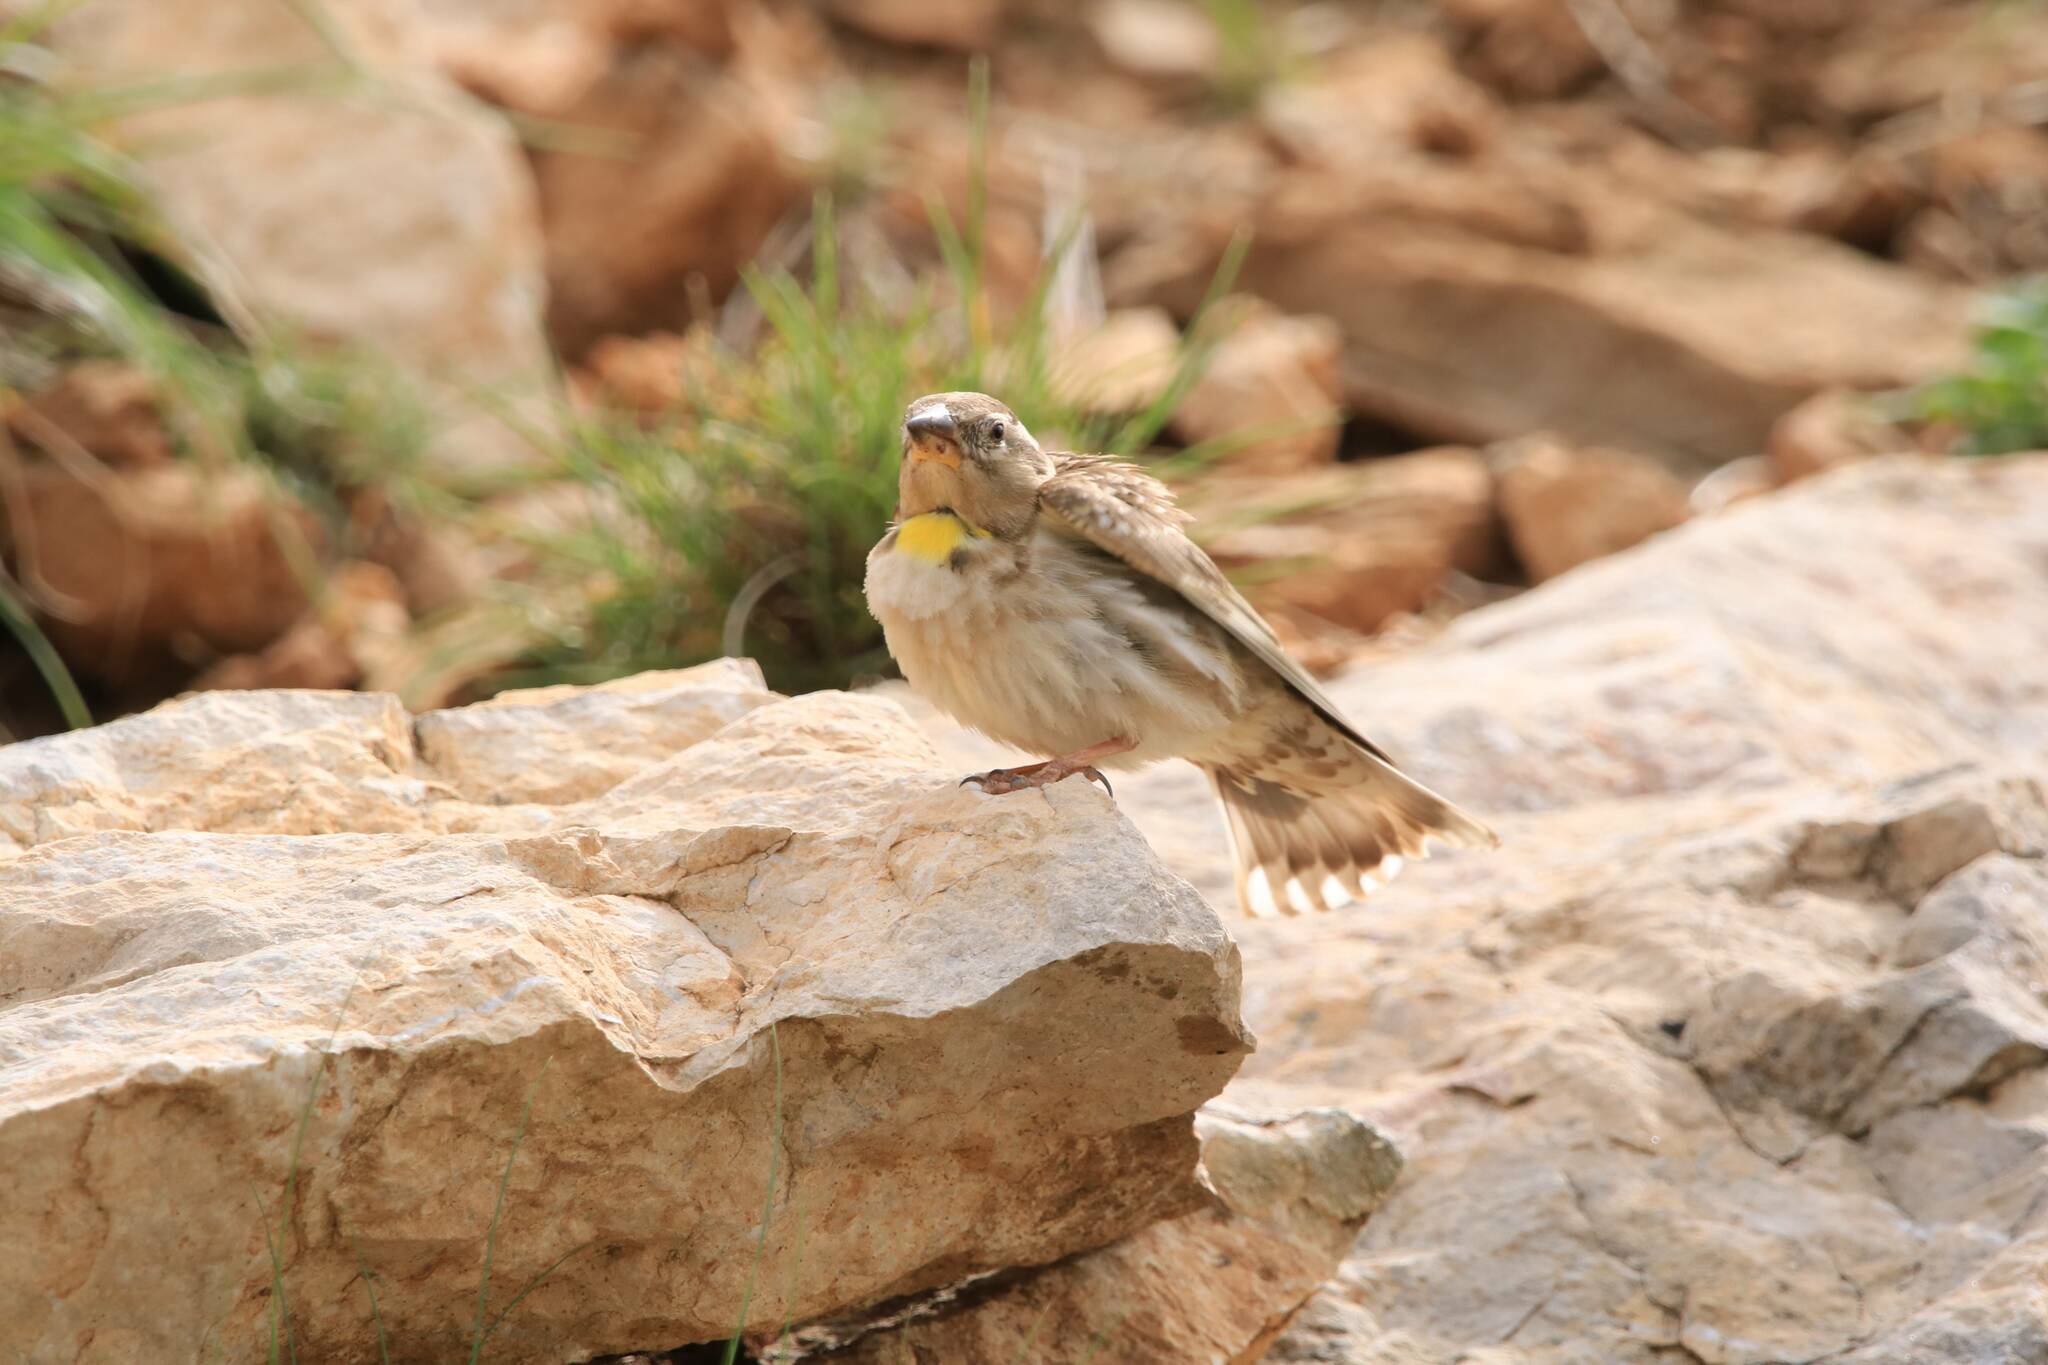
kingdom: Animalia
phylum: Chordata
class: Aves
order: Passeriformes
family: Passeridae
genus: Petronia
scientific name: Petronia petronia
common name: Rock sparrow
